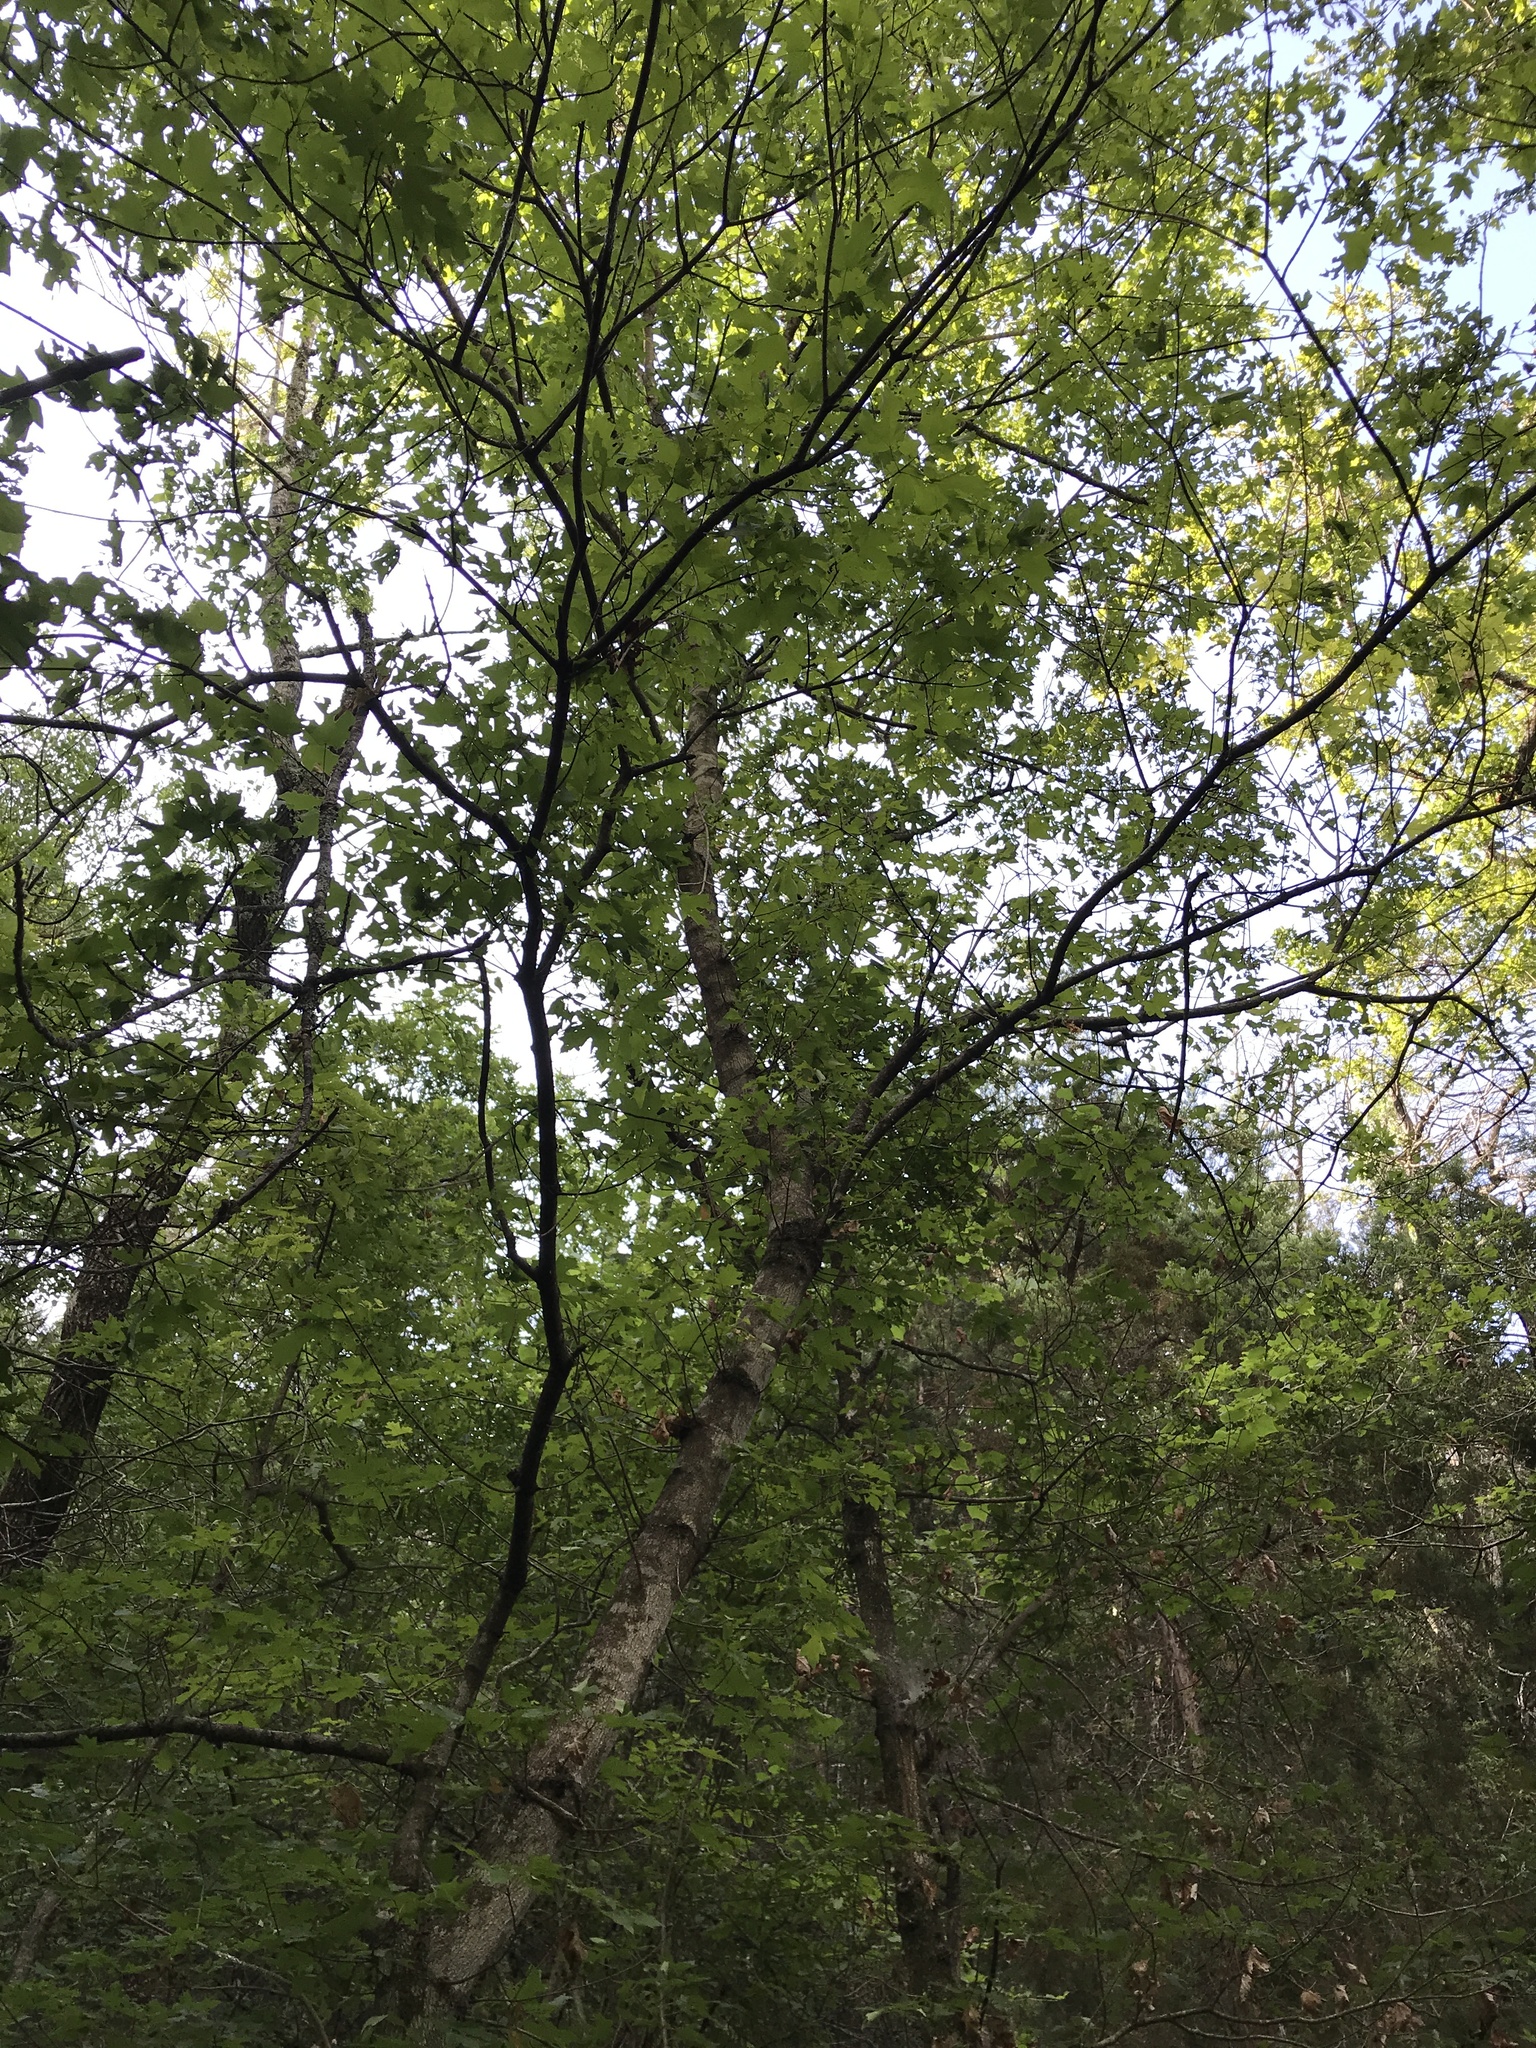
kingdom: Plantae
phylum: Tracheophyta
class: Magnoliopsida
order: Sapindales
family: Sapindaceae
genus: Acer
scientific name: Acer grandidentatum
